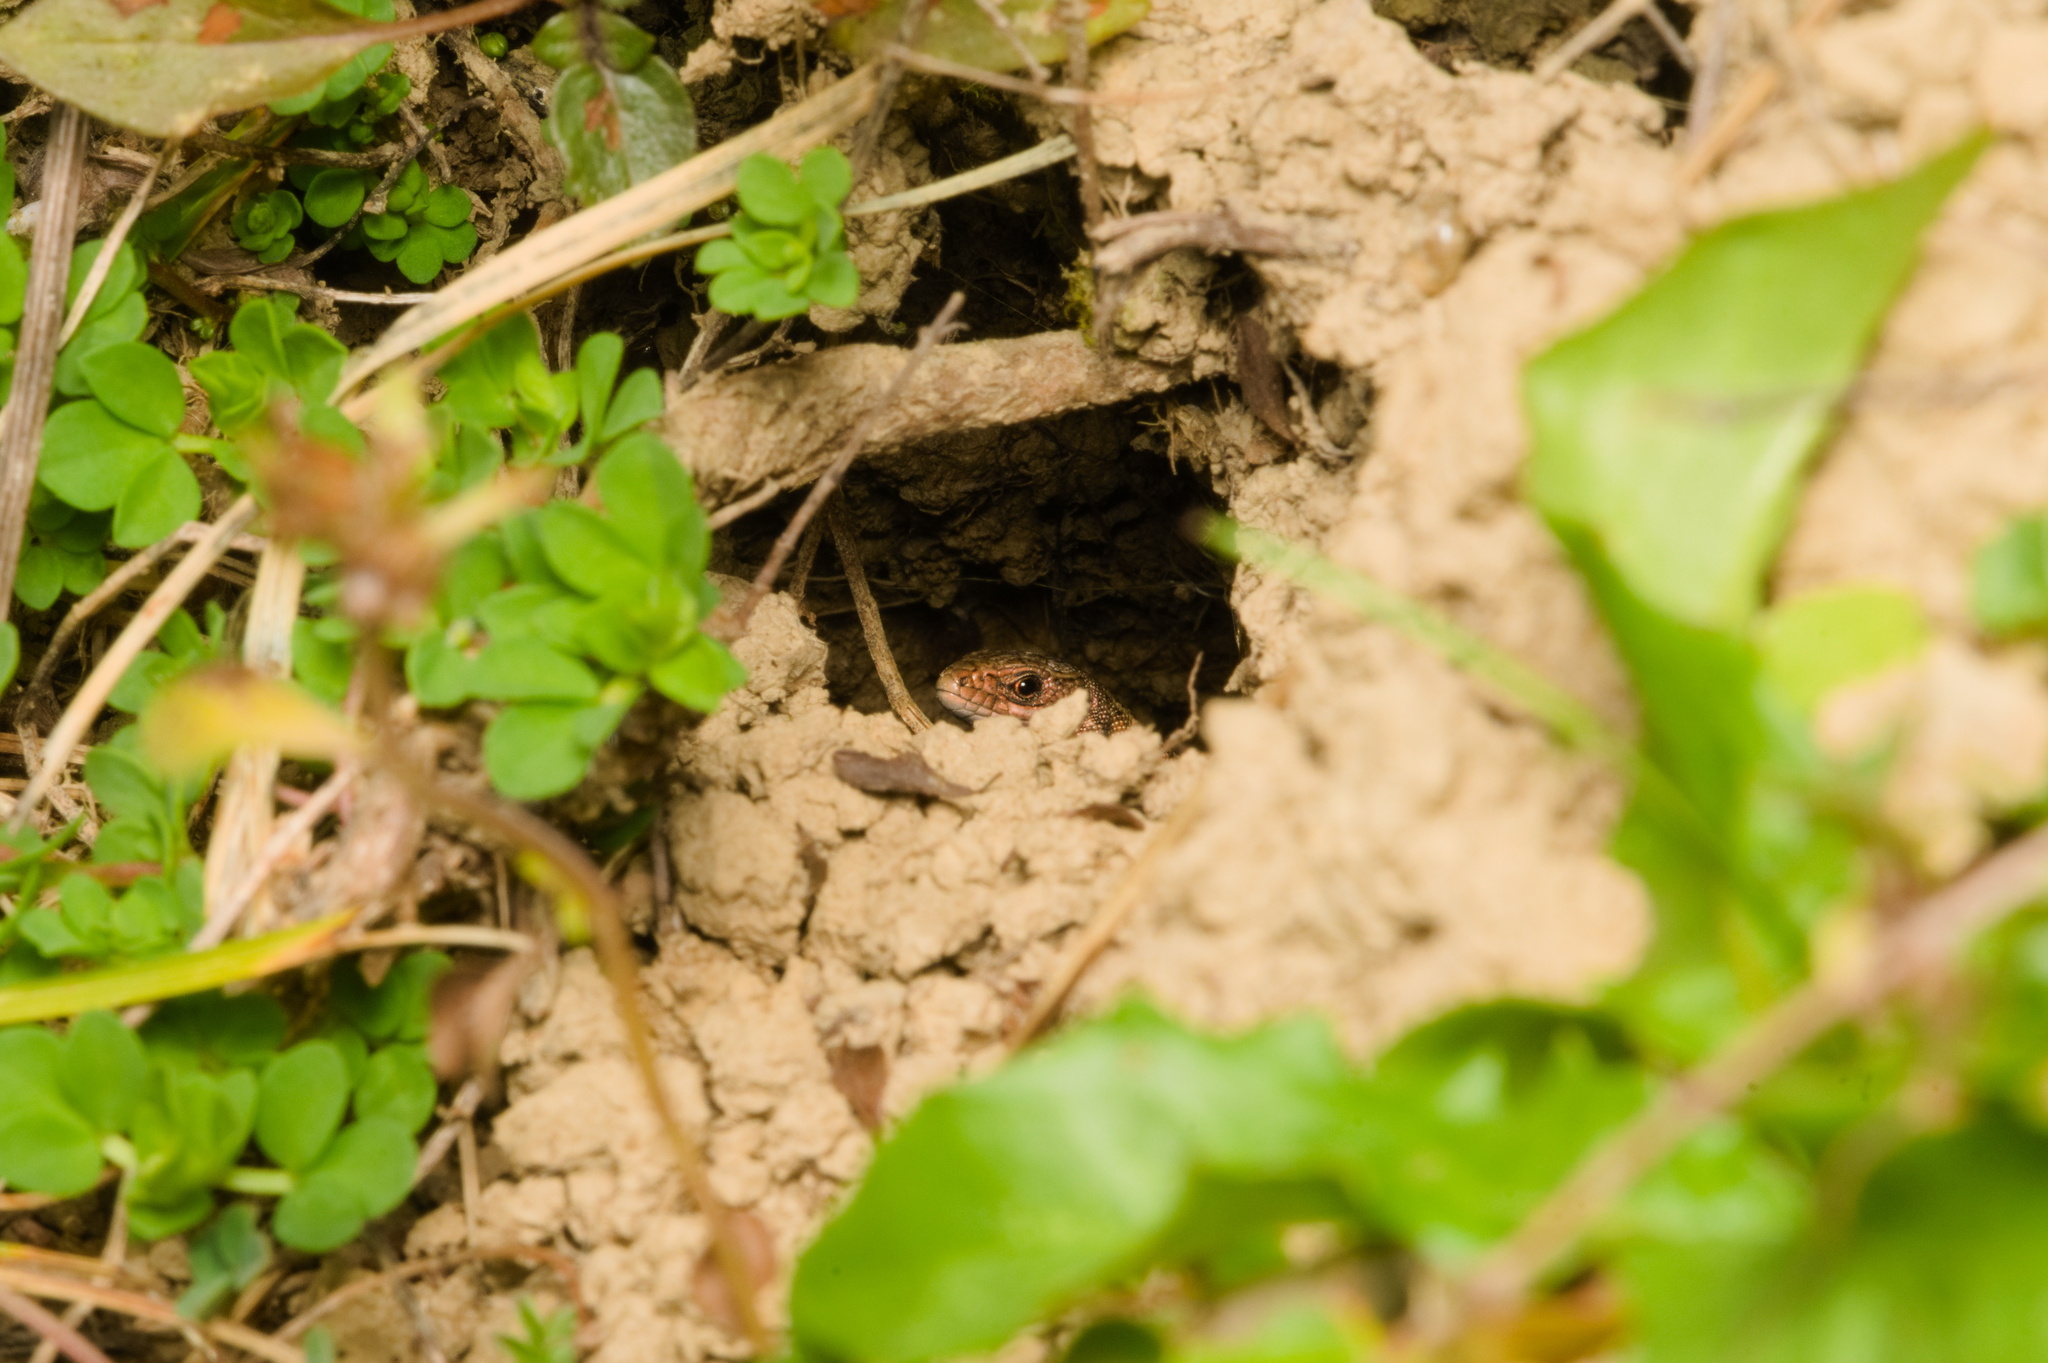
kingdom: Animalia
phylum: Chordata
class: Squamata
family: Lacertidae
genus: Zootoca
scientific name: Zootoca vivipara
